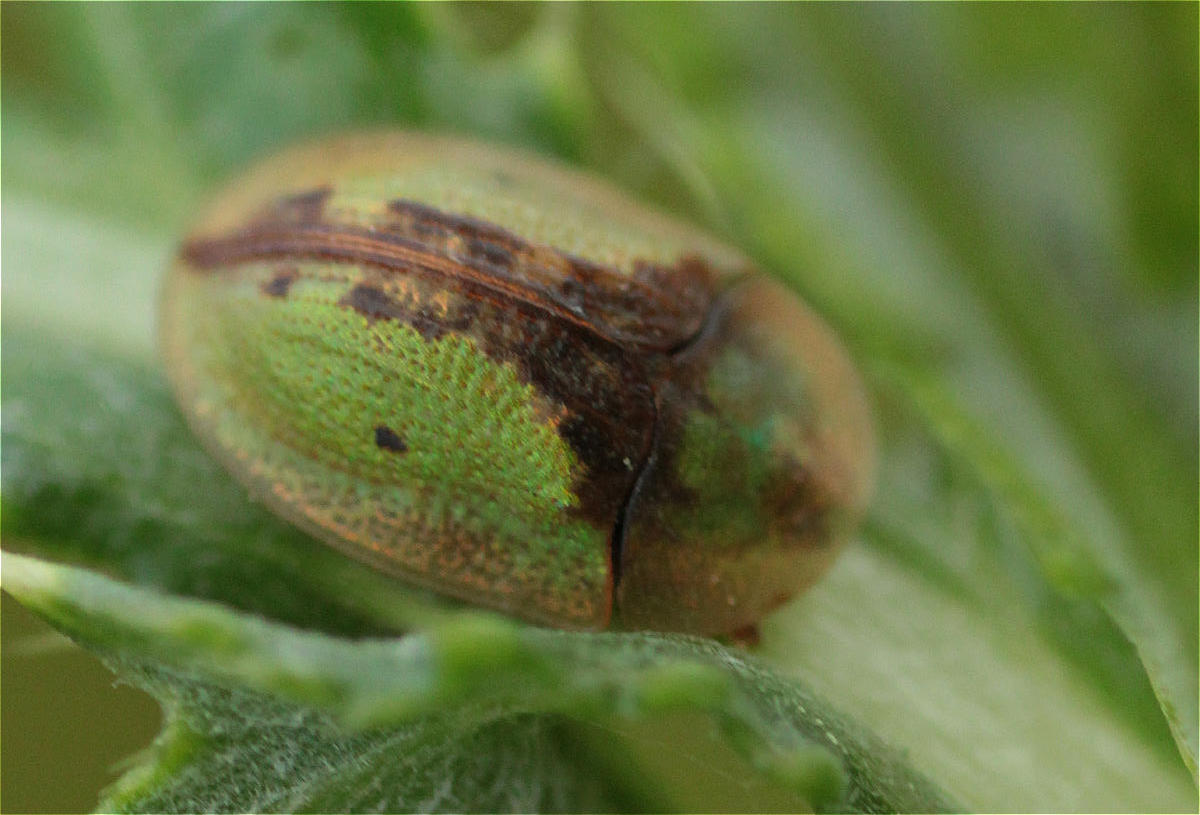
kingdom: Animalia
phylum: Arthropoda
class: Insecta
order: Coleoptera
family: Chrysomelidae
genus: Cassida
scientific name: Cassida vibex
